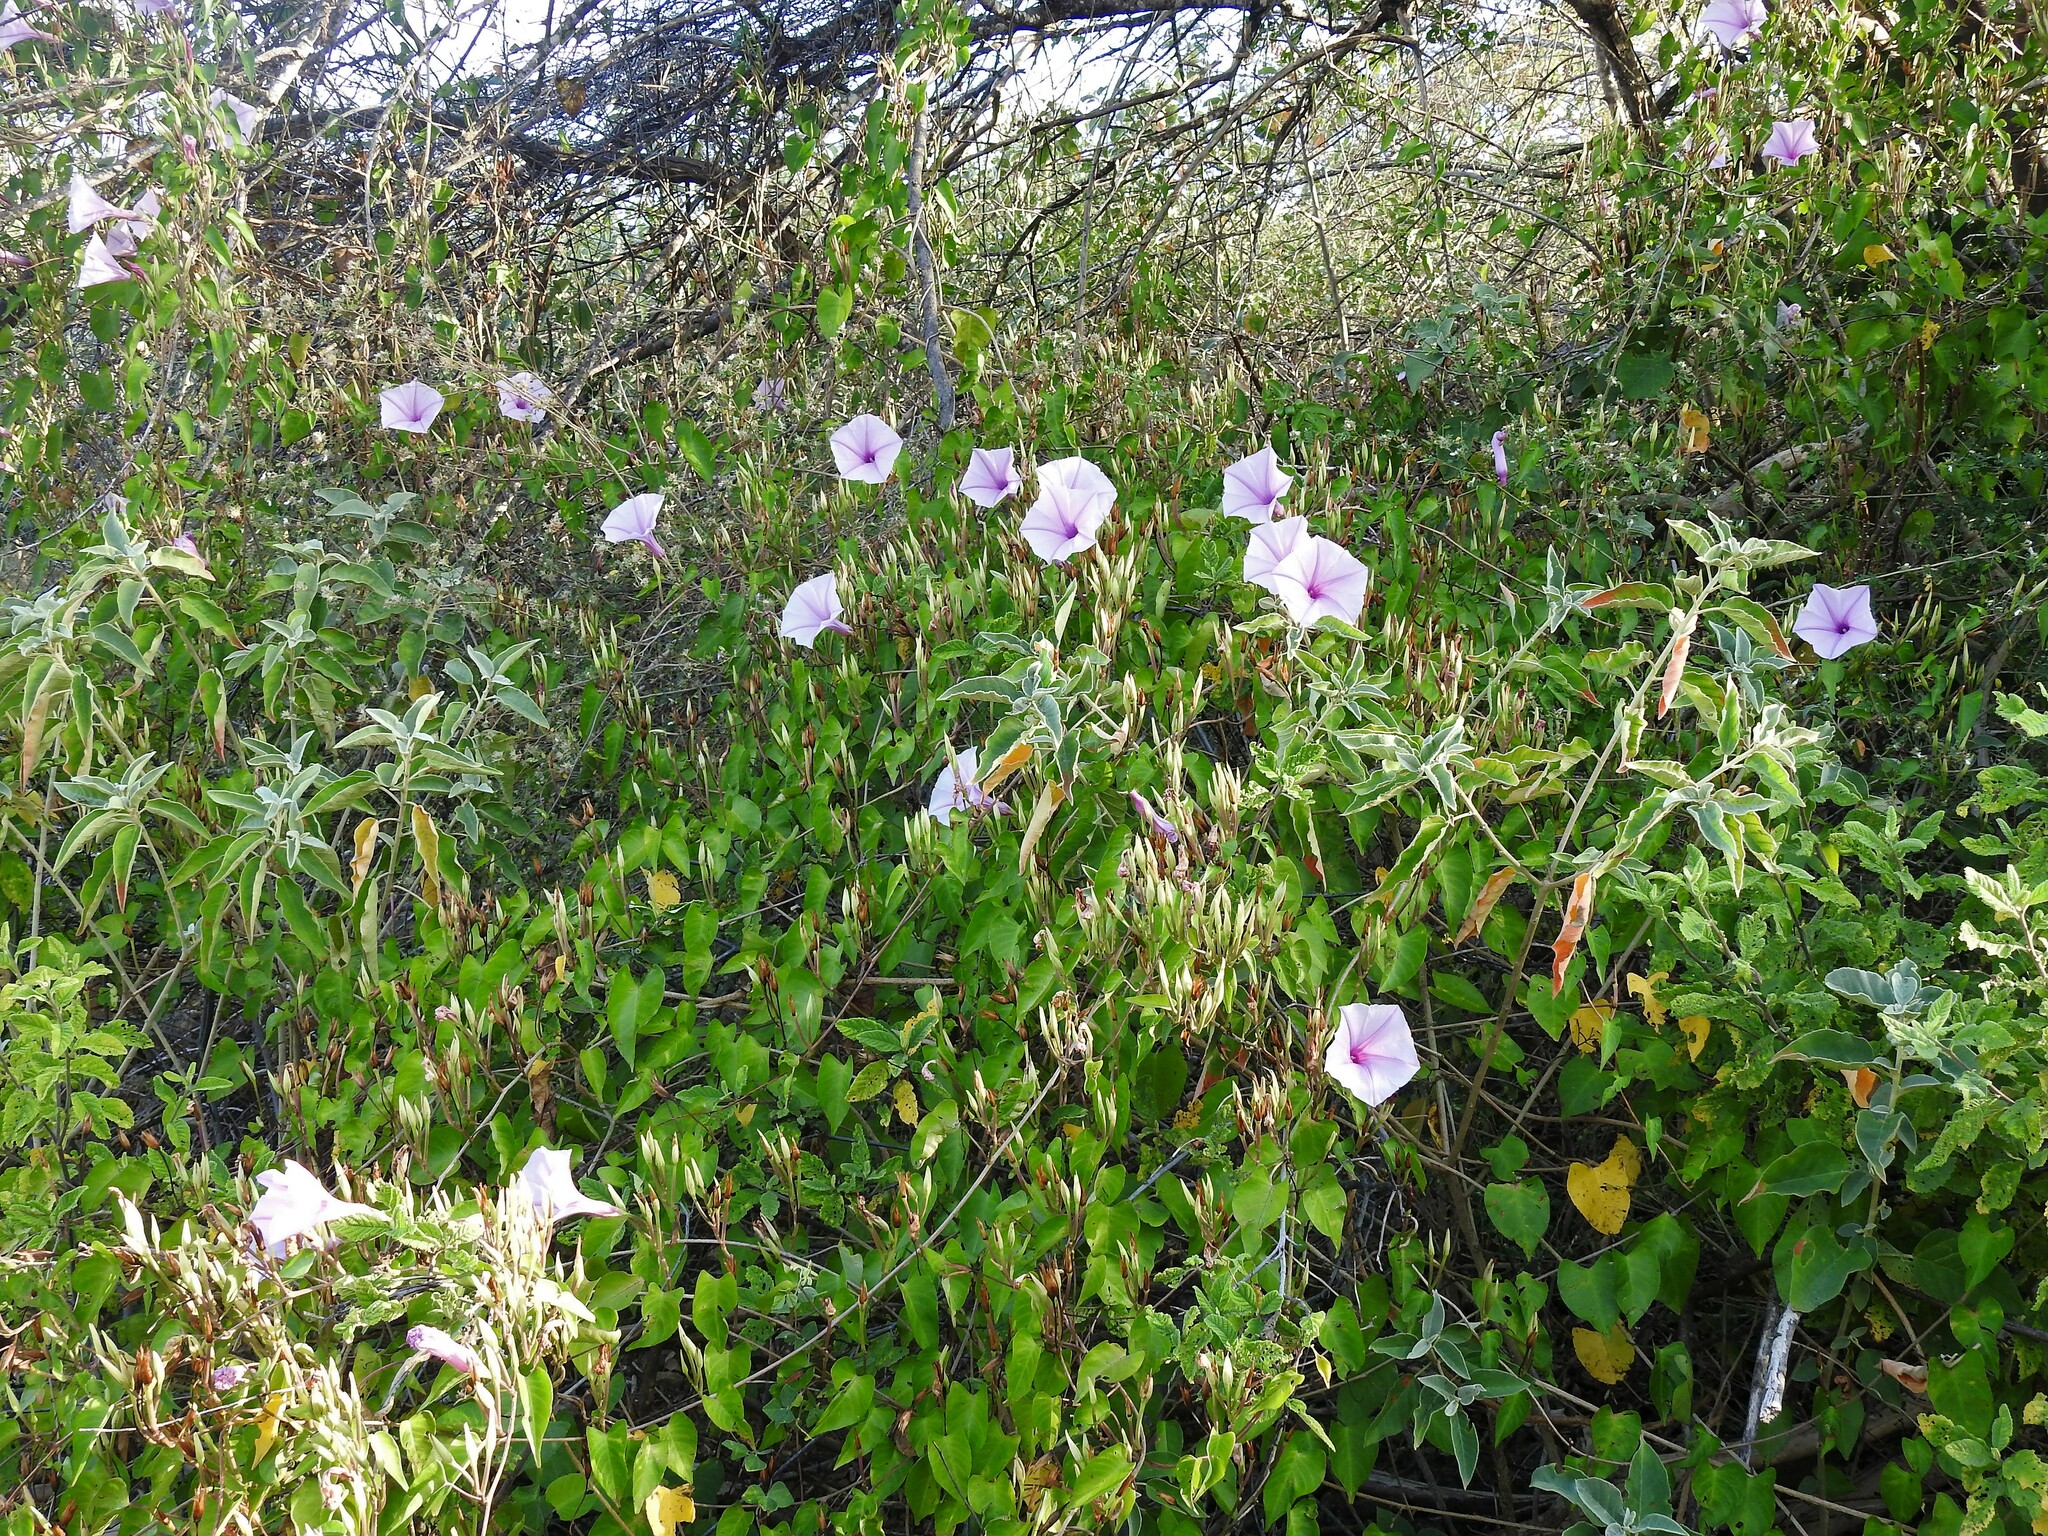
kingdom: Plantae
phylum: Tracheophyta
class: Magnoliopsida
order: Solanales
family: Convolvulaceae
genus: Ipomoea
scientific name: Ipomoea incarnata
